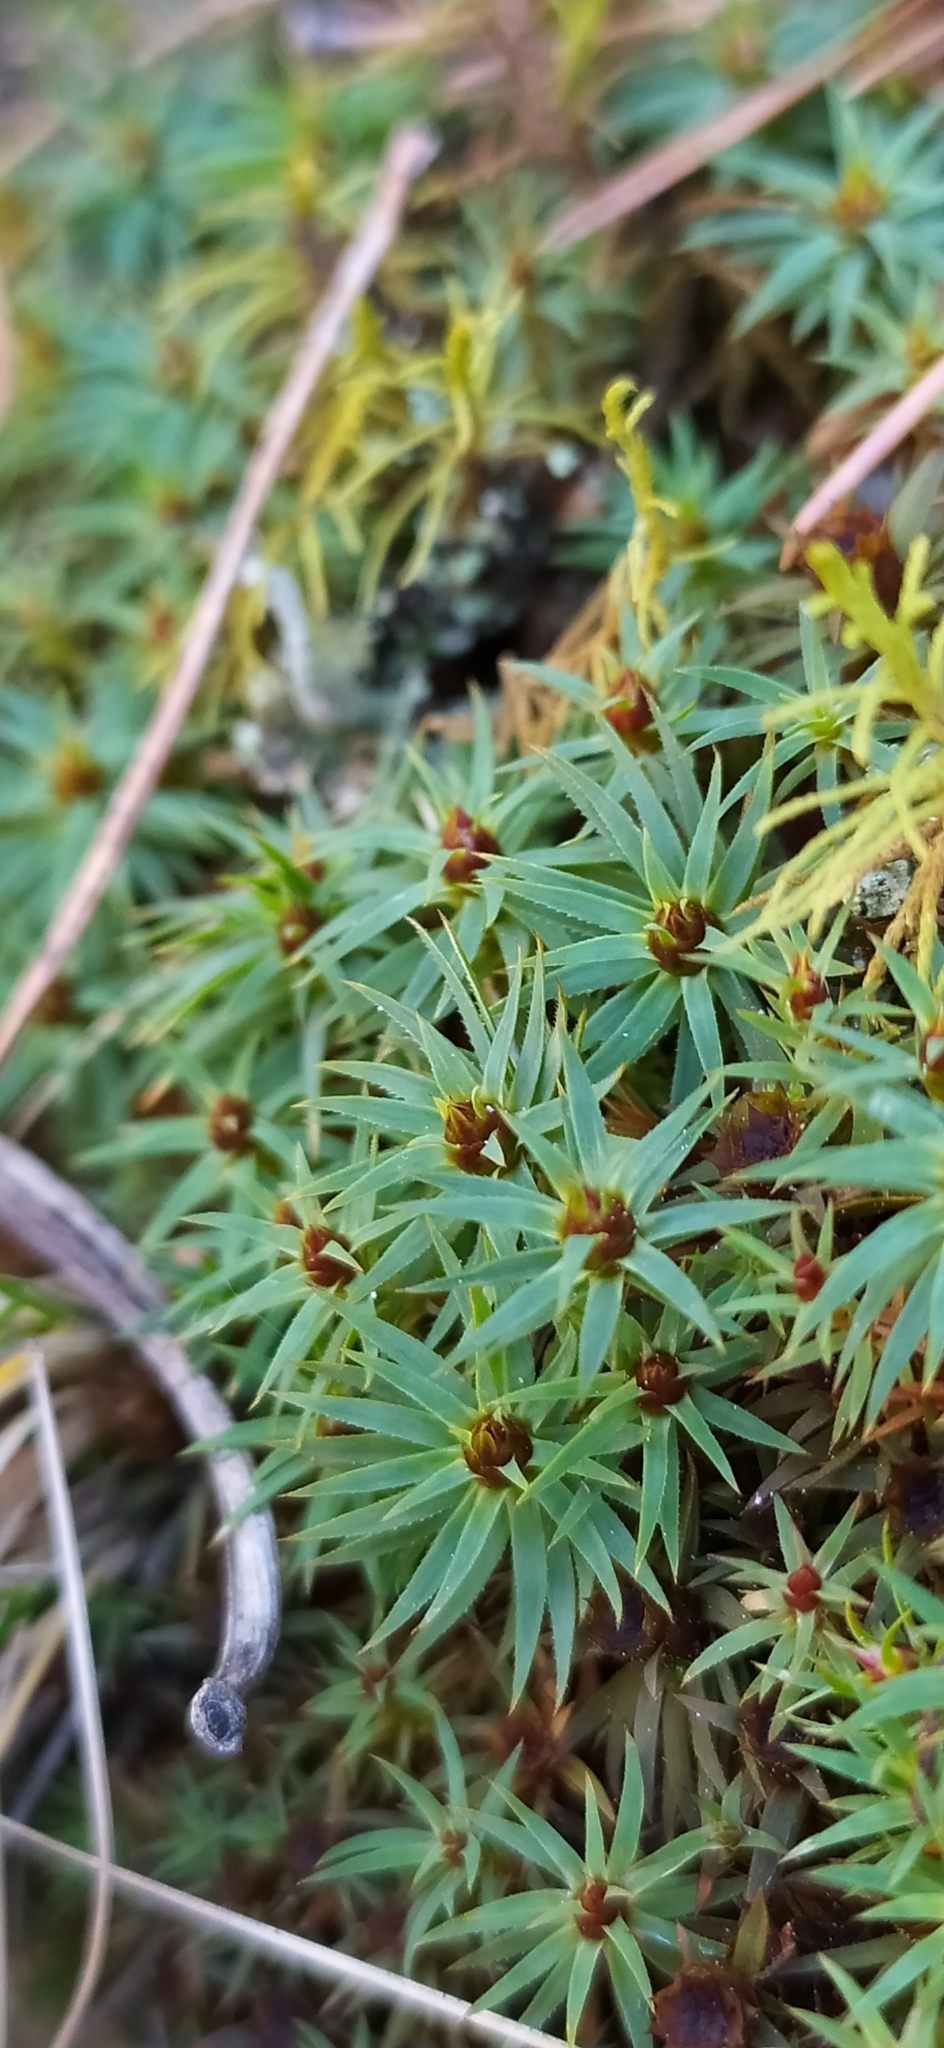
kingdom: Plantae
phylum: Bryophyta
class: Polytrichopsida
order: Polytrichales
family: Polytrichaceae
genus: Pogonatum
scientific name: Pogonatum urnigerum
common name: Urn hair moss
